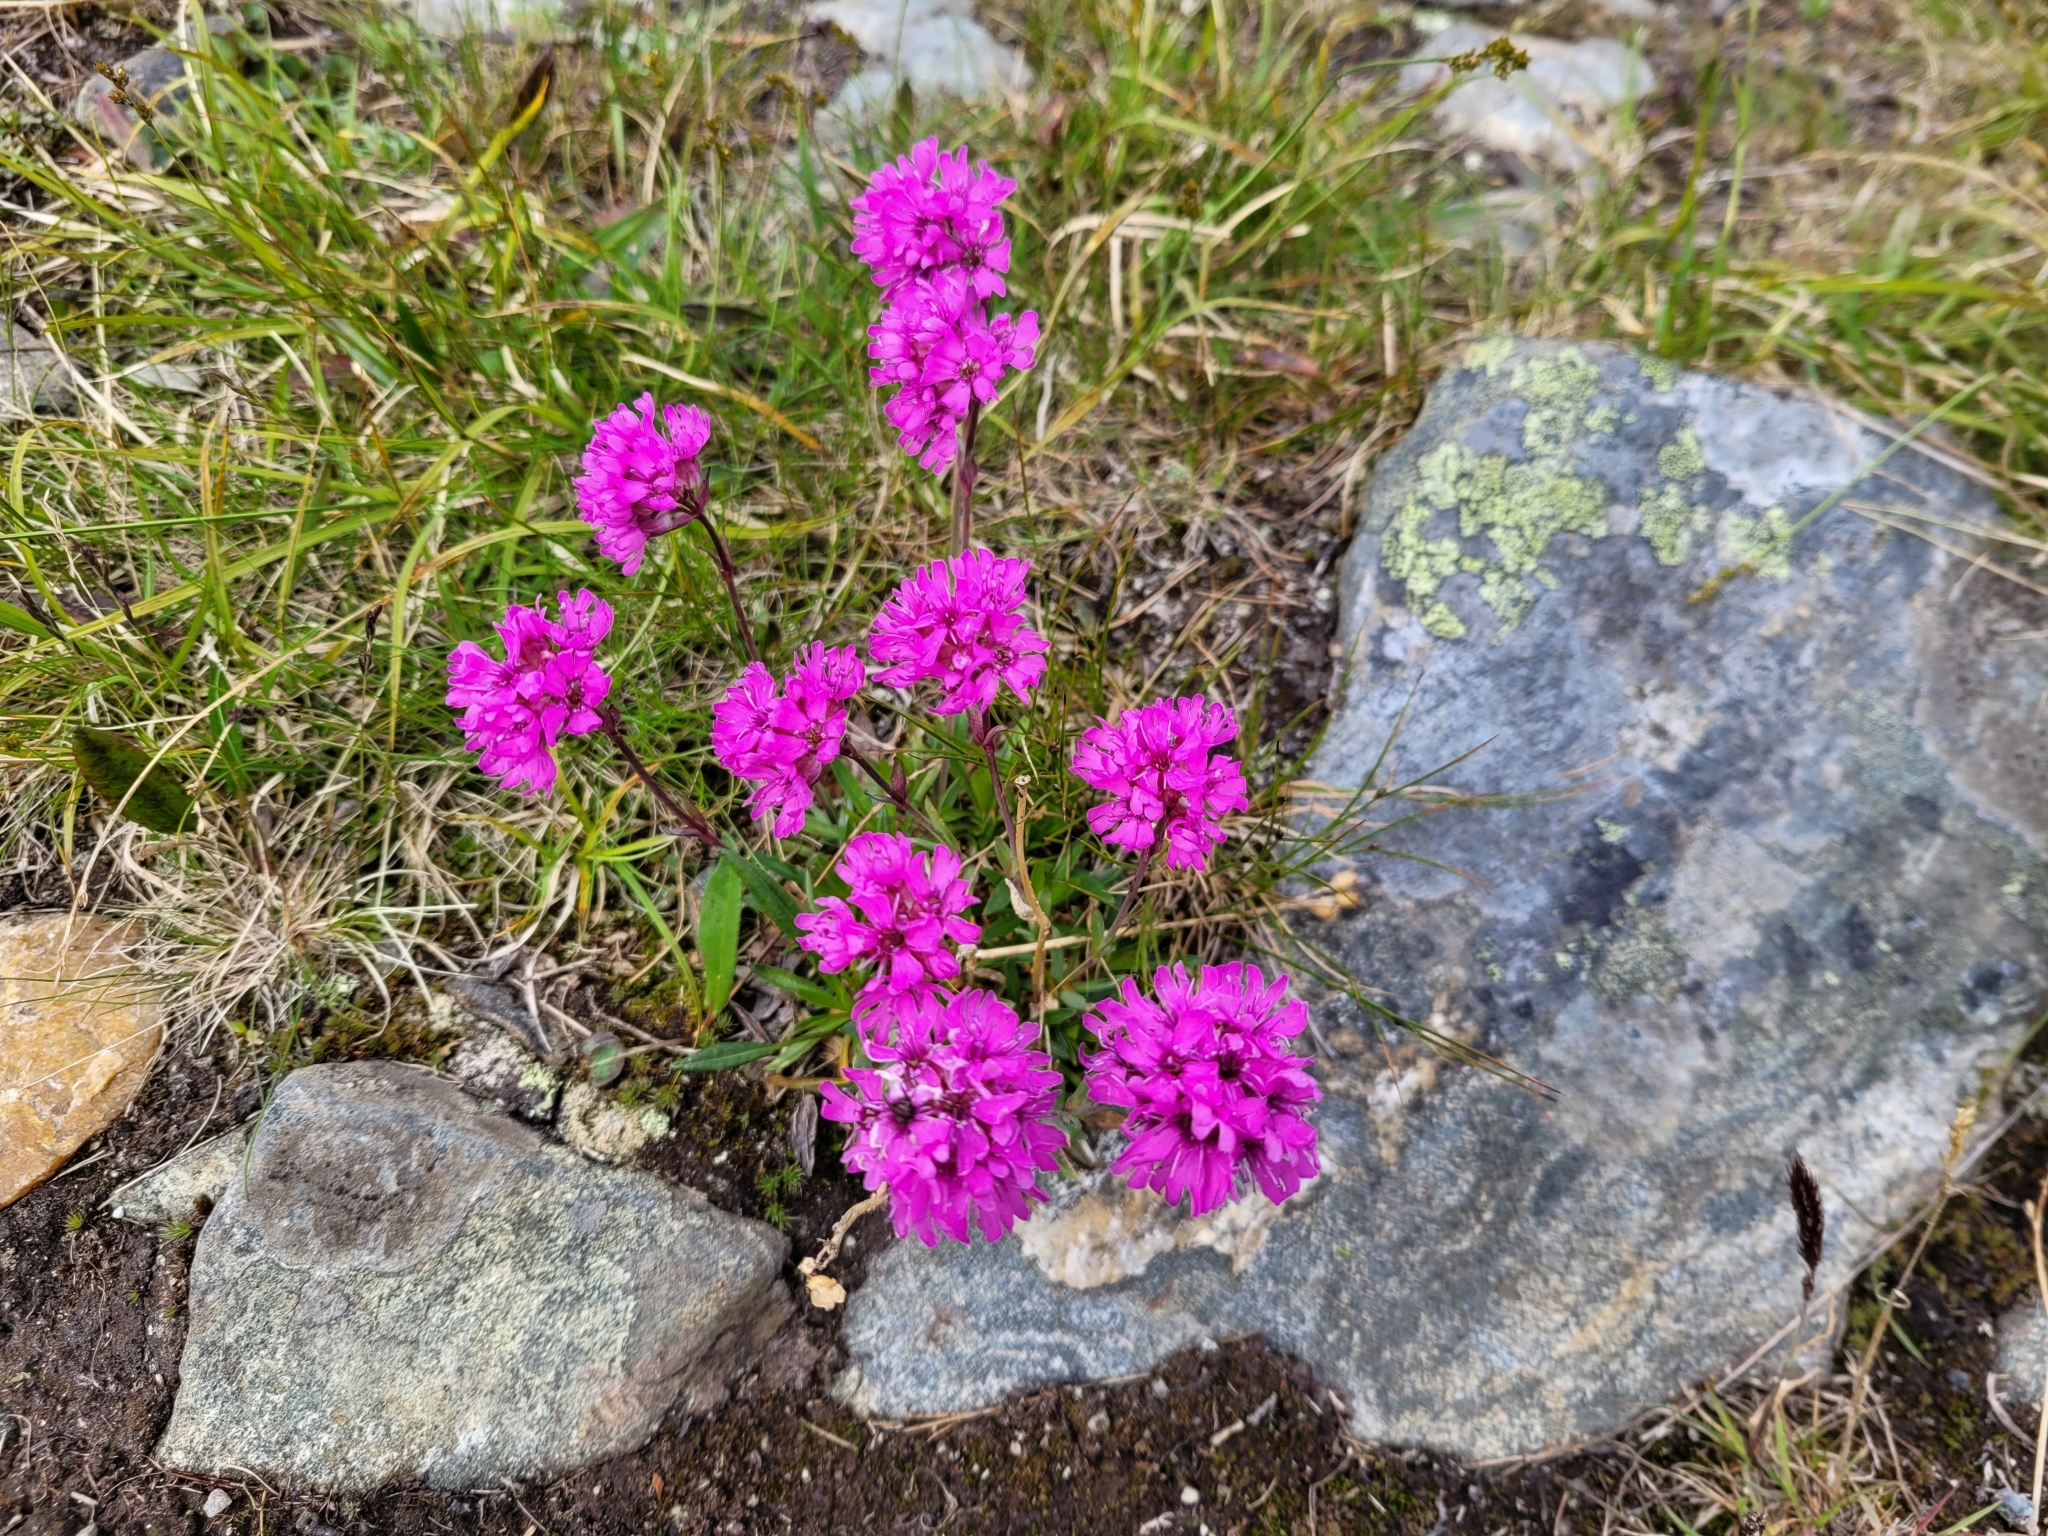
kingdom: Plantae
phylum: Tracheophyta
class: Magnoliopsida
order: Caryophyllales
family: Caryophyllaceae
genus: Viscaria
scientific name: Viscaria alpina
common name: Alpine campion
